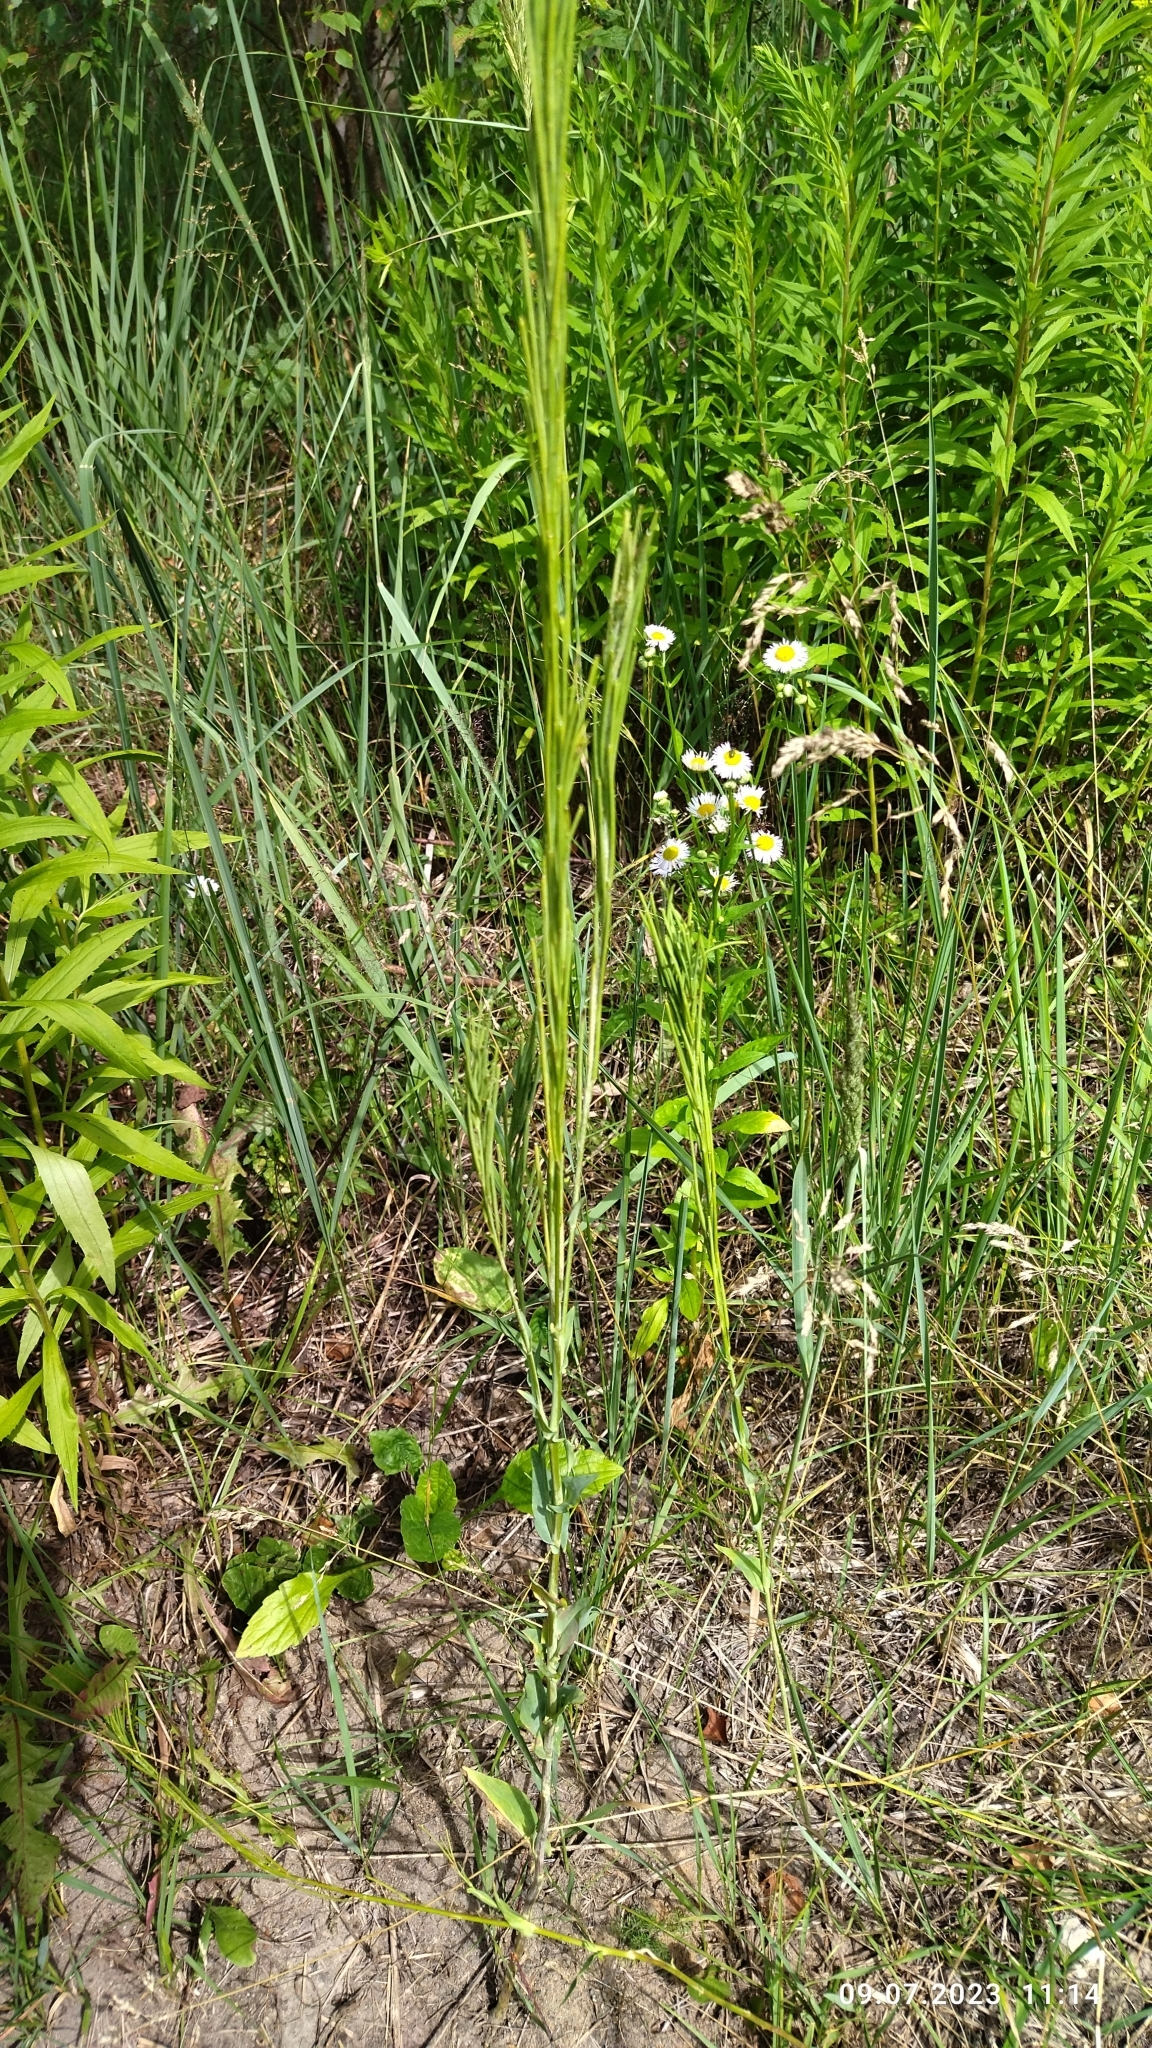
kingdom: Plantae
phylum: Tracheophyta
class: Magnoliopsida
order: Brassicales
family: Brassicaceae
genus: Turritis
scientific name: Turritis glabra
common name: Tower rockcress
